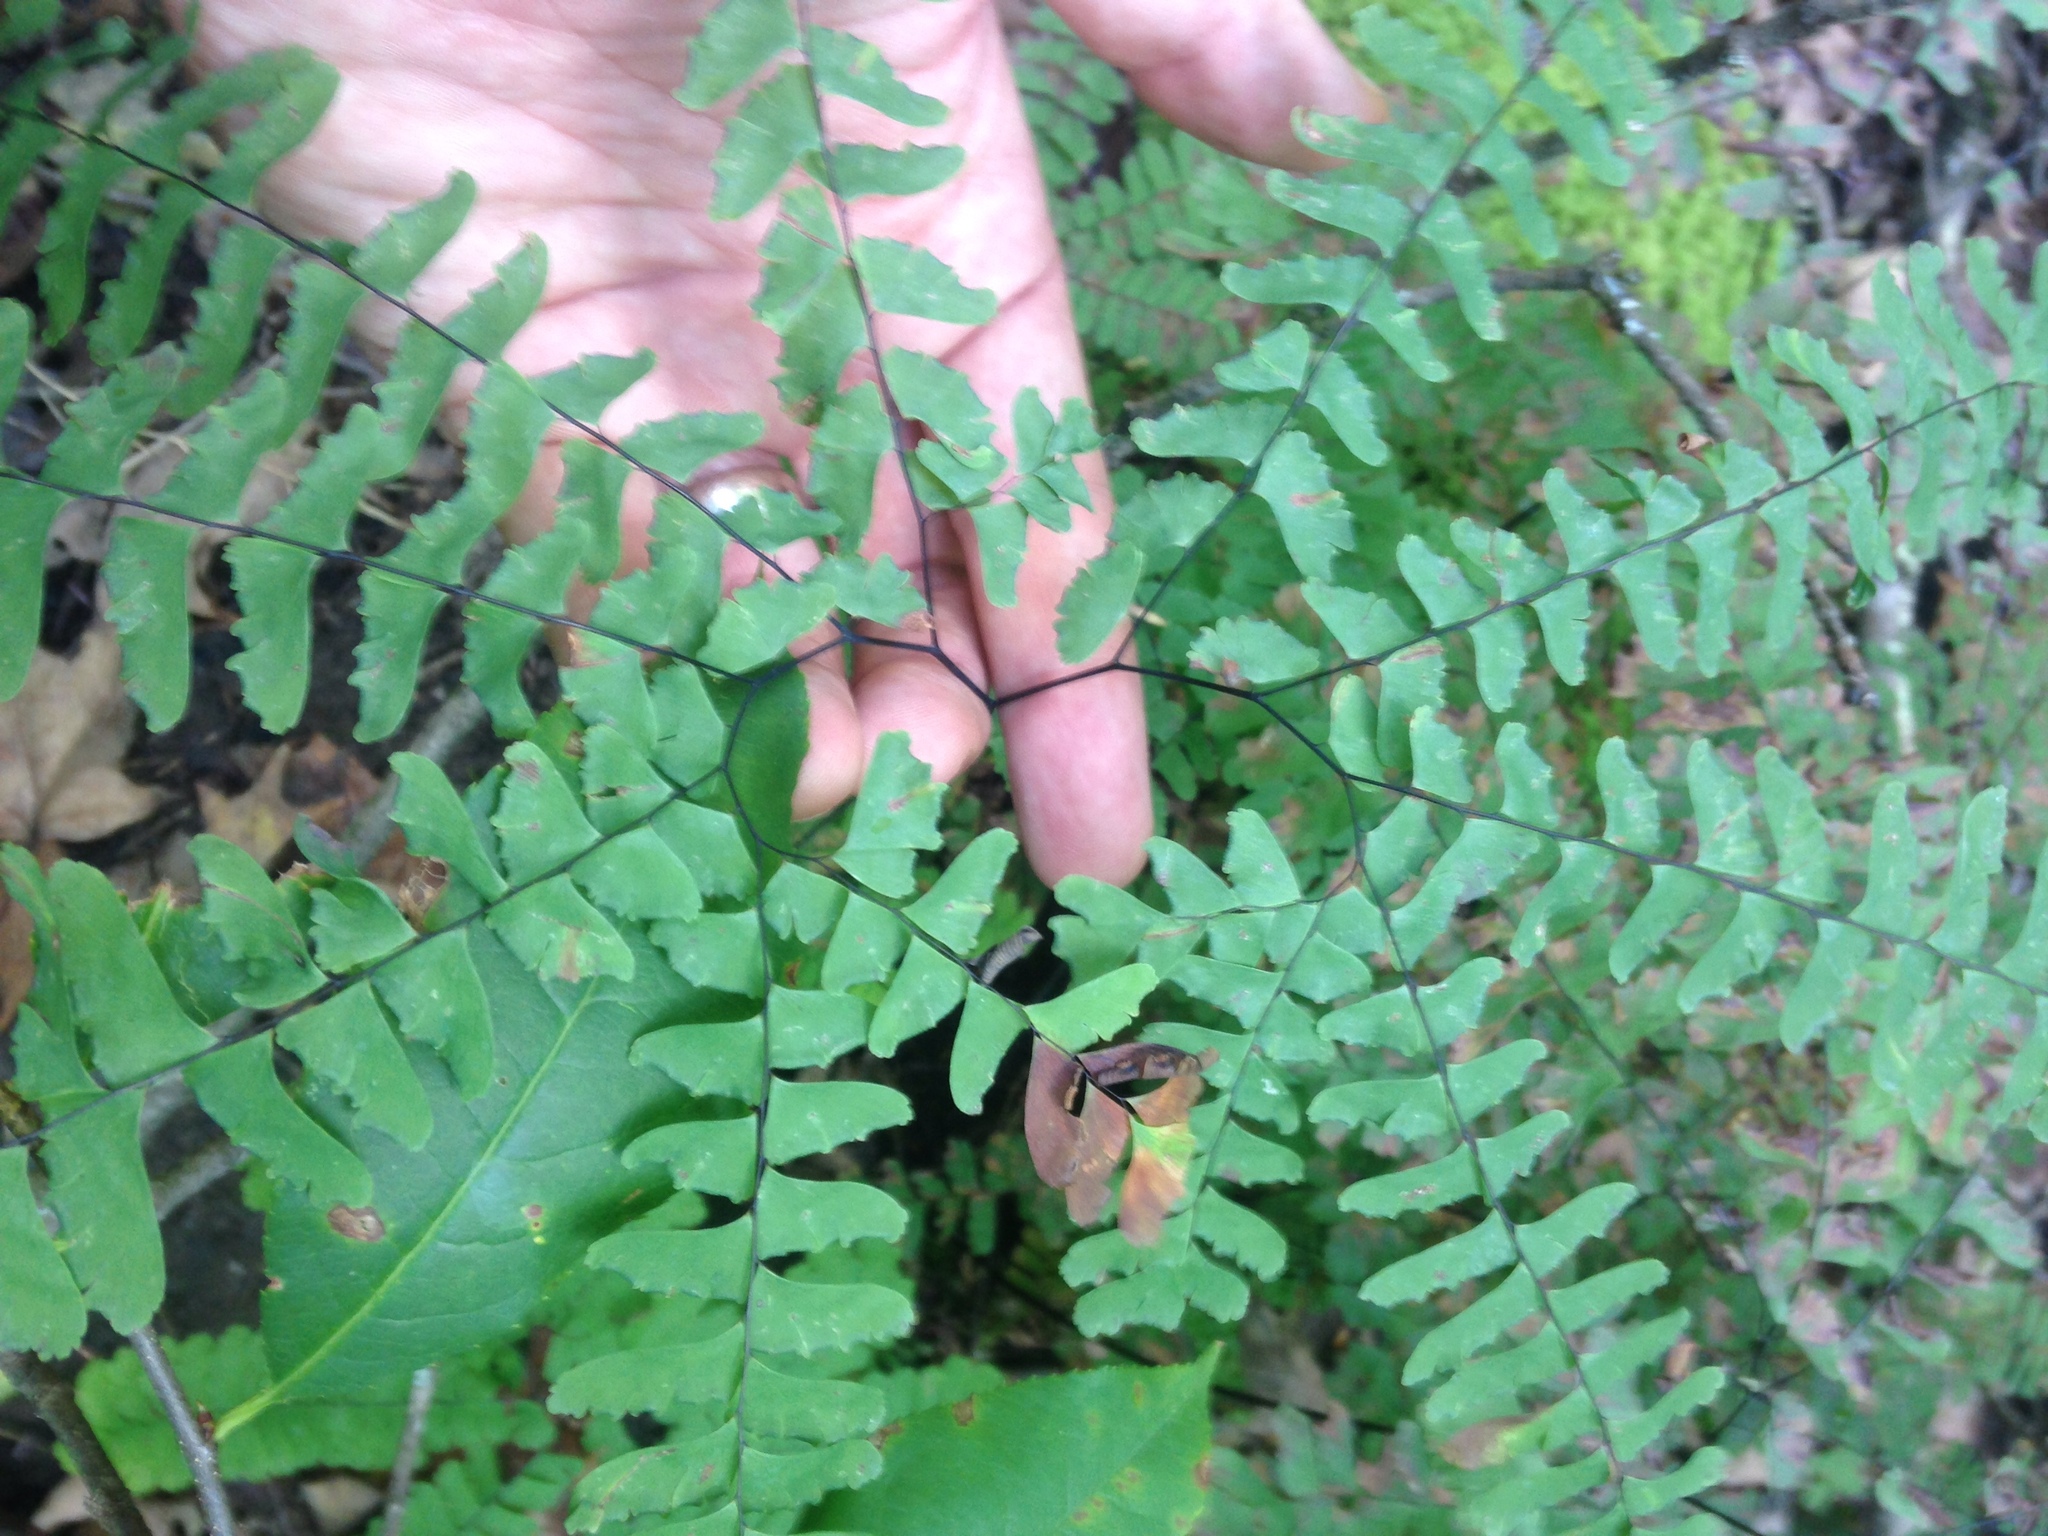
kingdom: Plantae
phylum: Tracheophyta
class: Polypodiopsida
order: Polypodiales
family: Pteridaceae
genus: Adiantum
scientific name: Adiantum pedatum
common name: Five-finger fern
